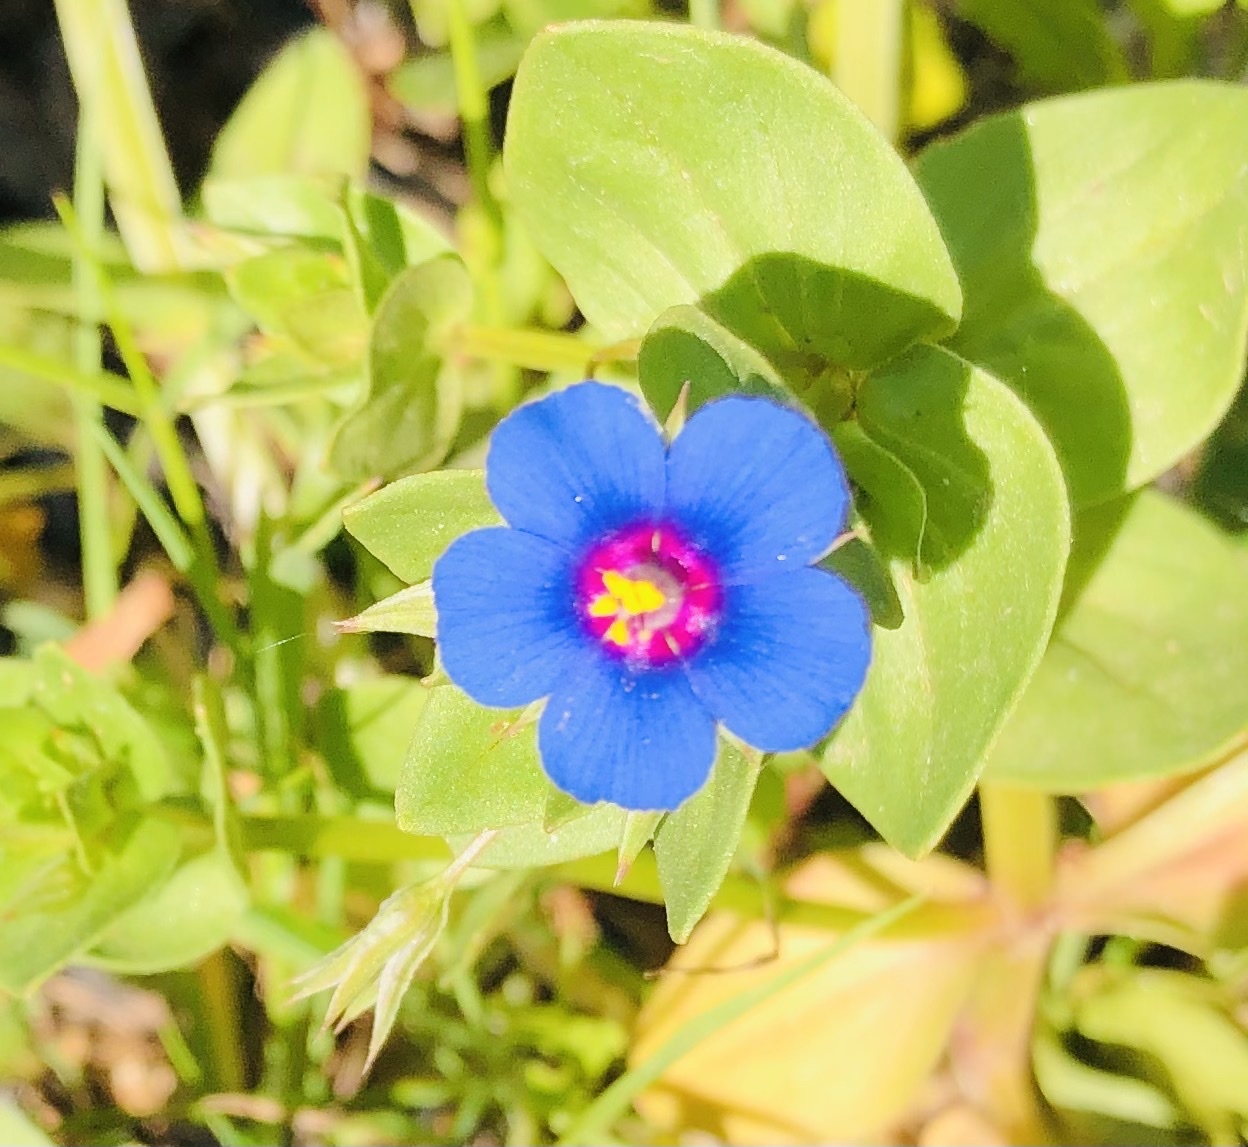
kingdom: Plantae
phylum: Tracheophyta
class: Magnoliopsida
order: Ericales
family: Primulaceae
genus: Lysimachia
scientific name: Lysimachia arvensis
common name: Scarlet pimpernel
